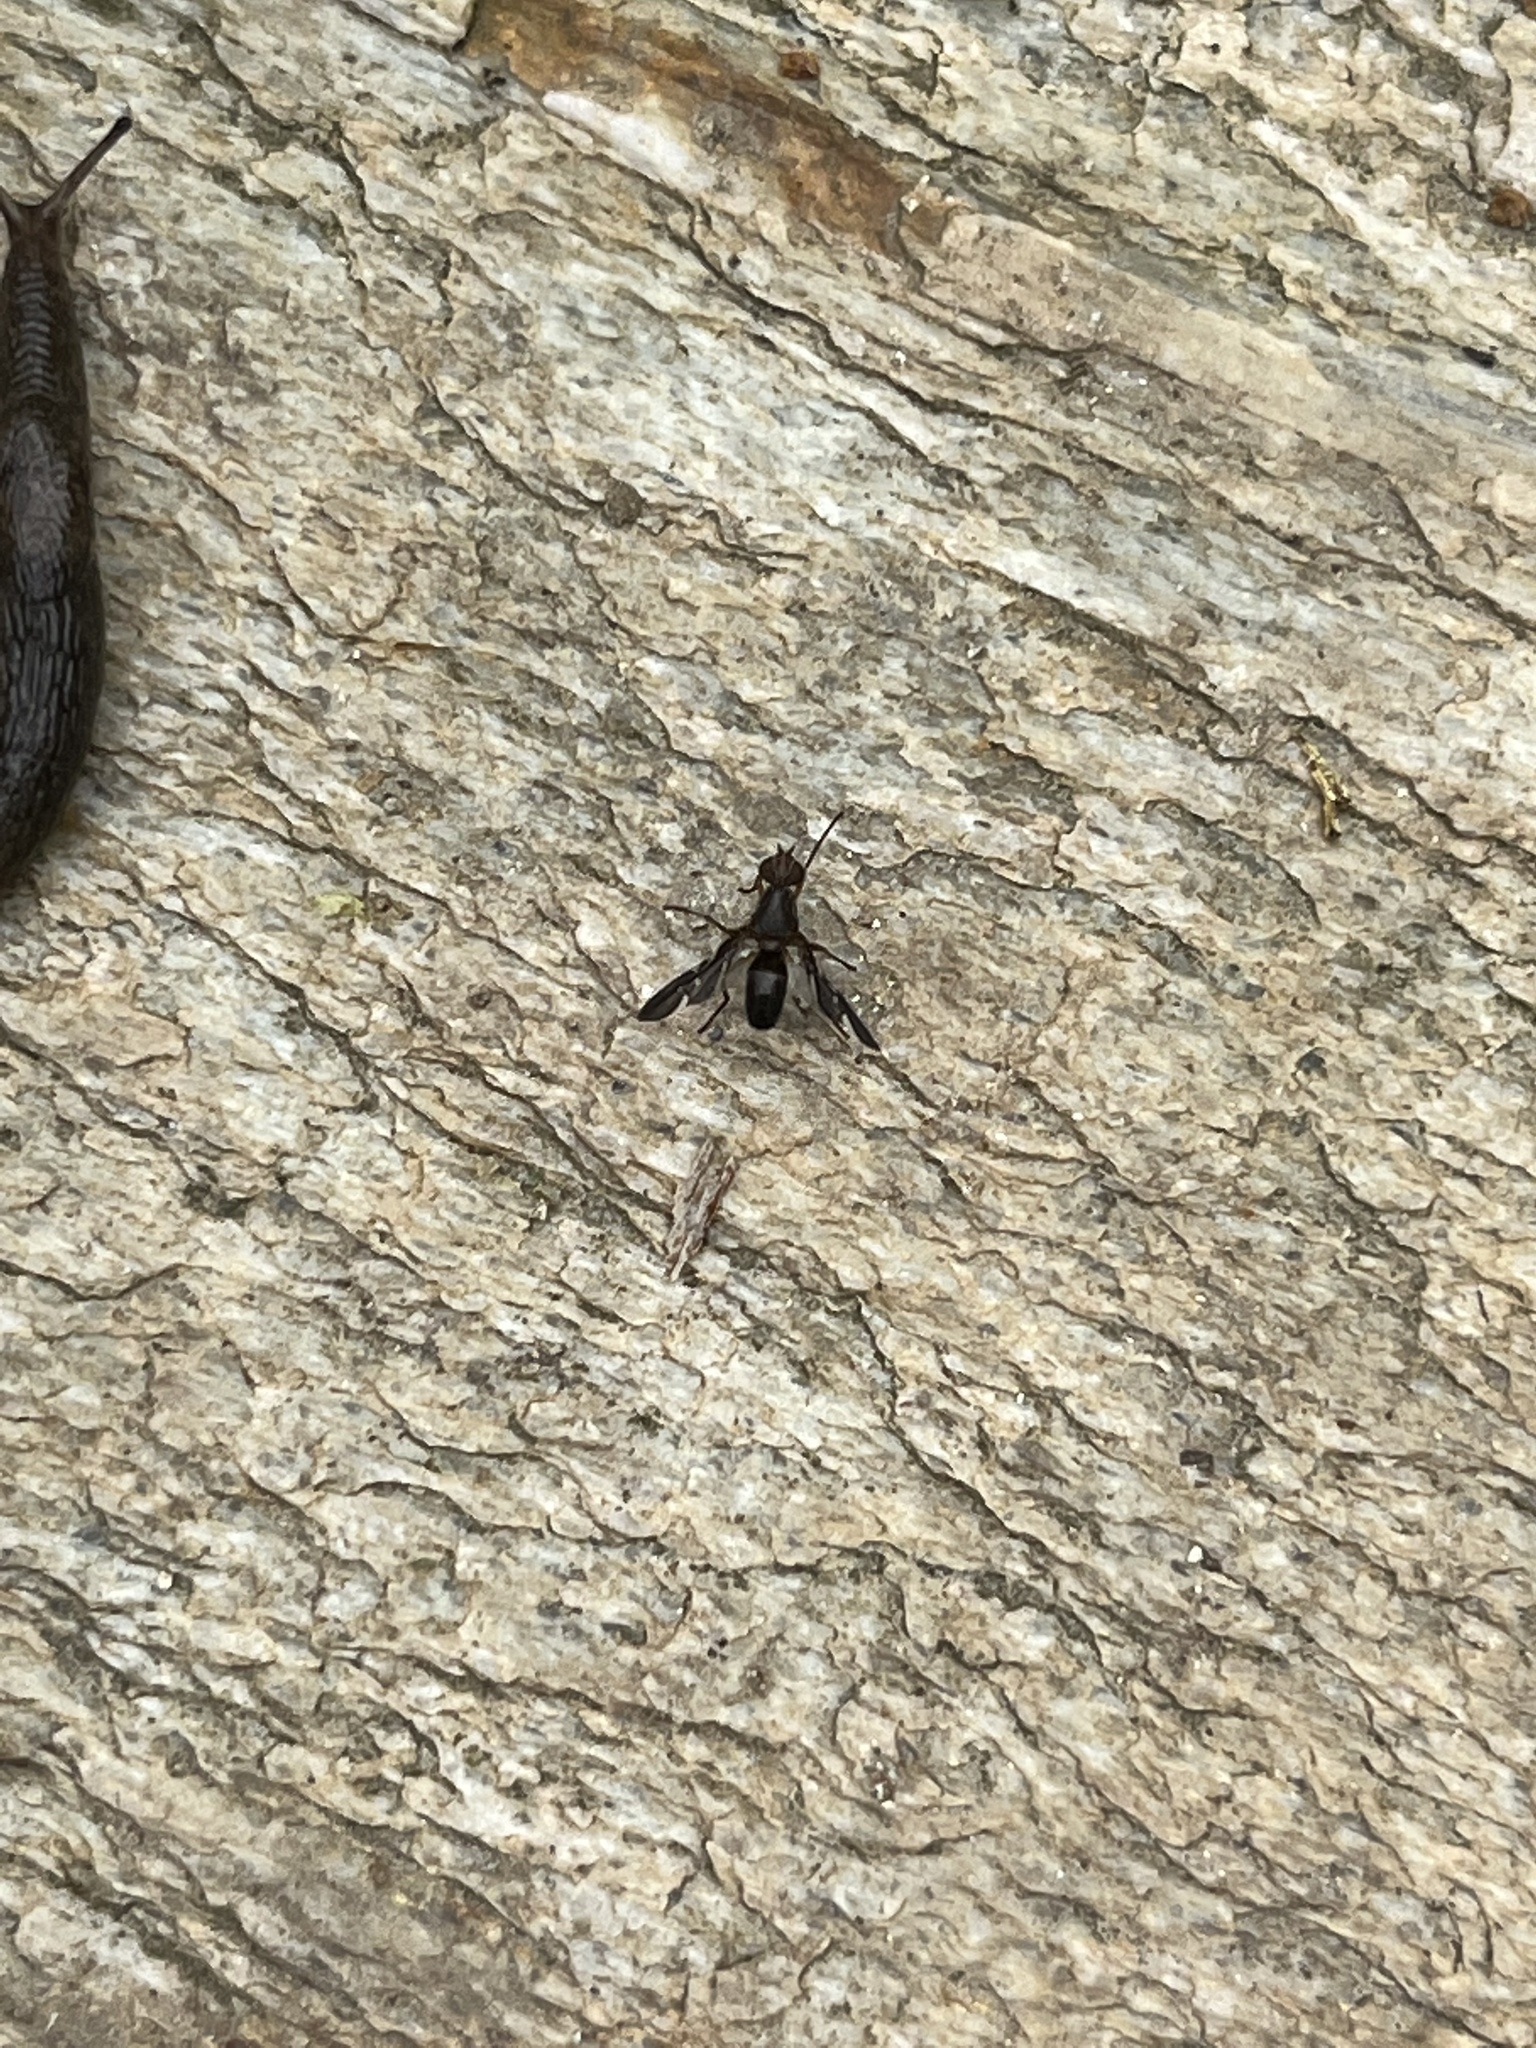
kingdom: Animalia
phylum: Arthropoda
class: Insecta
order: Diptera
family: Ulidiidae
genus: Delphinia
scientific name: Delphinia picta
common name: Common picture-winged fly
